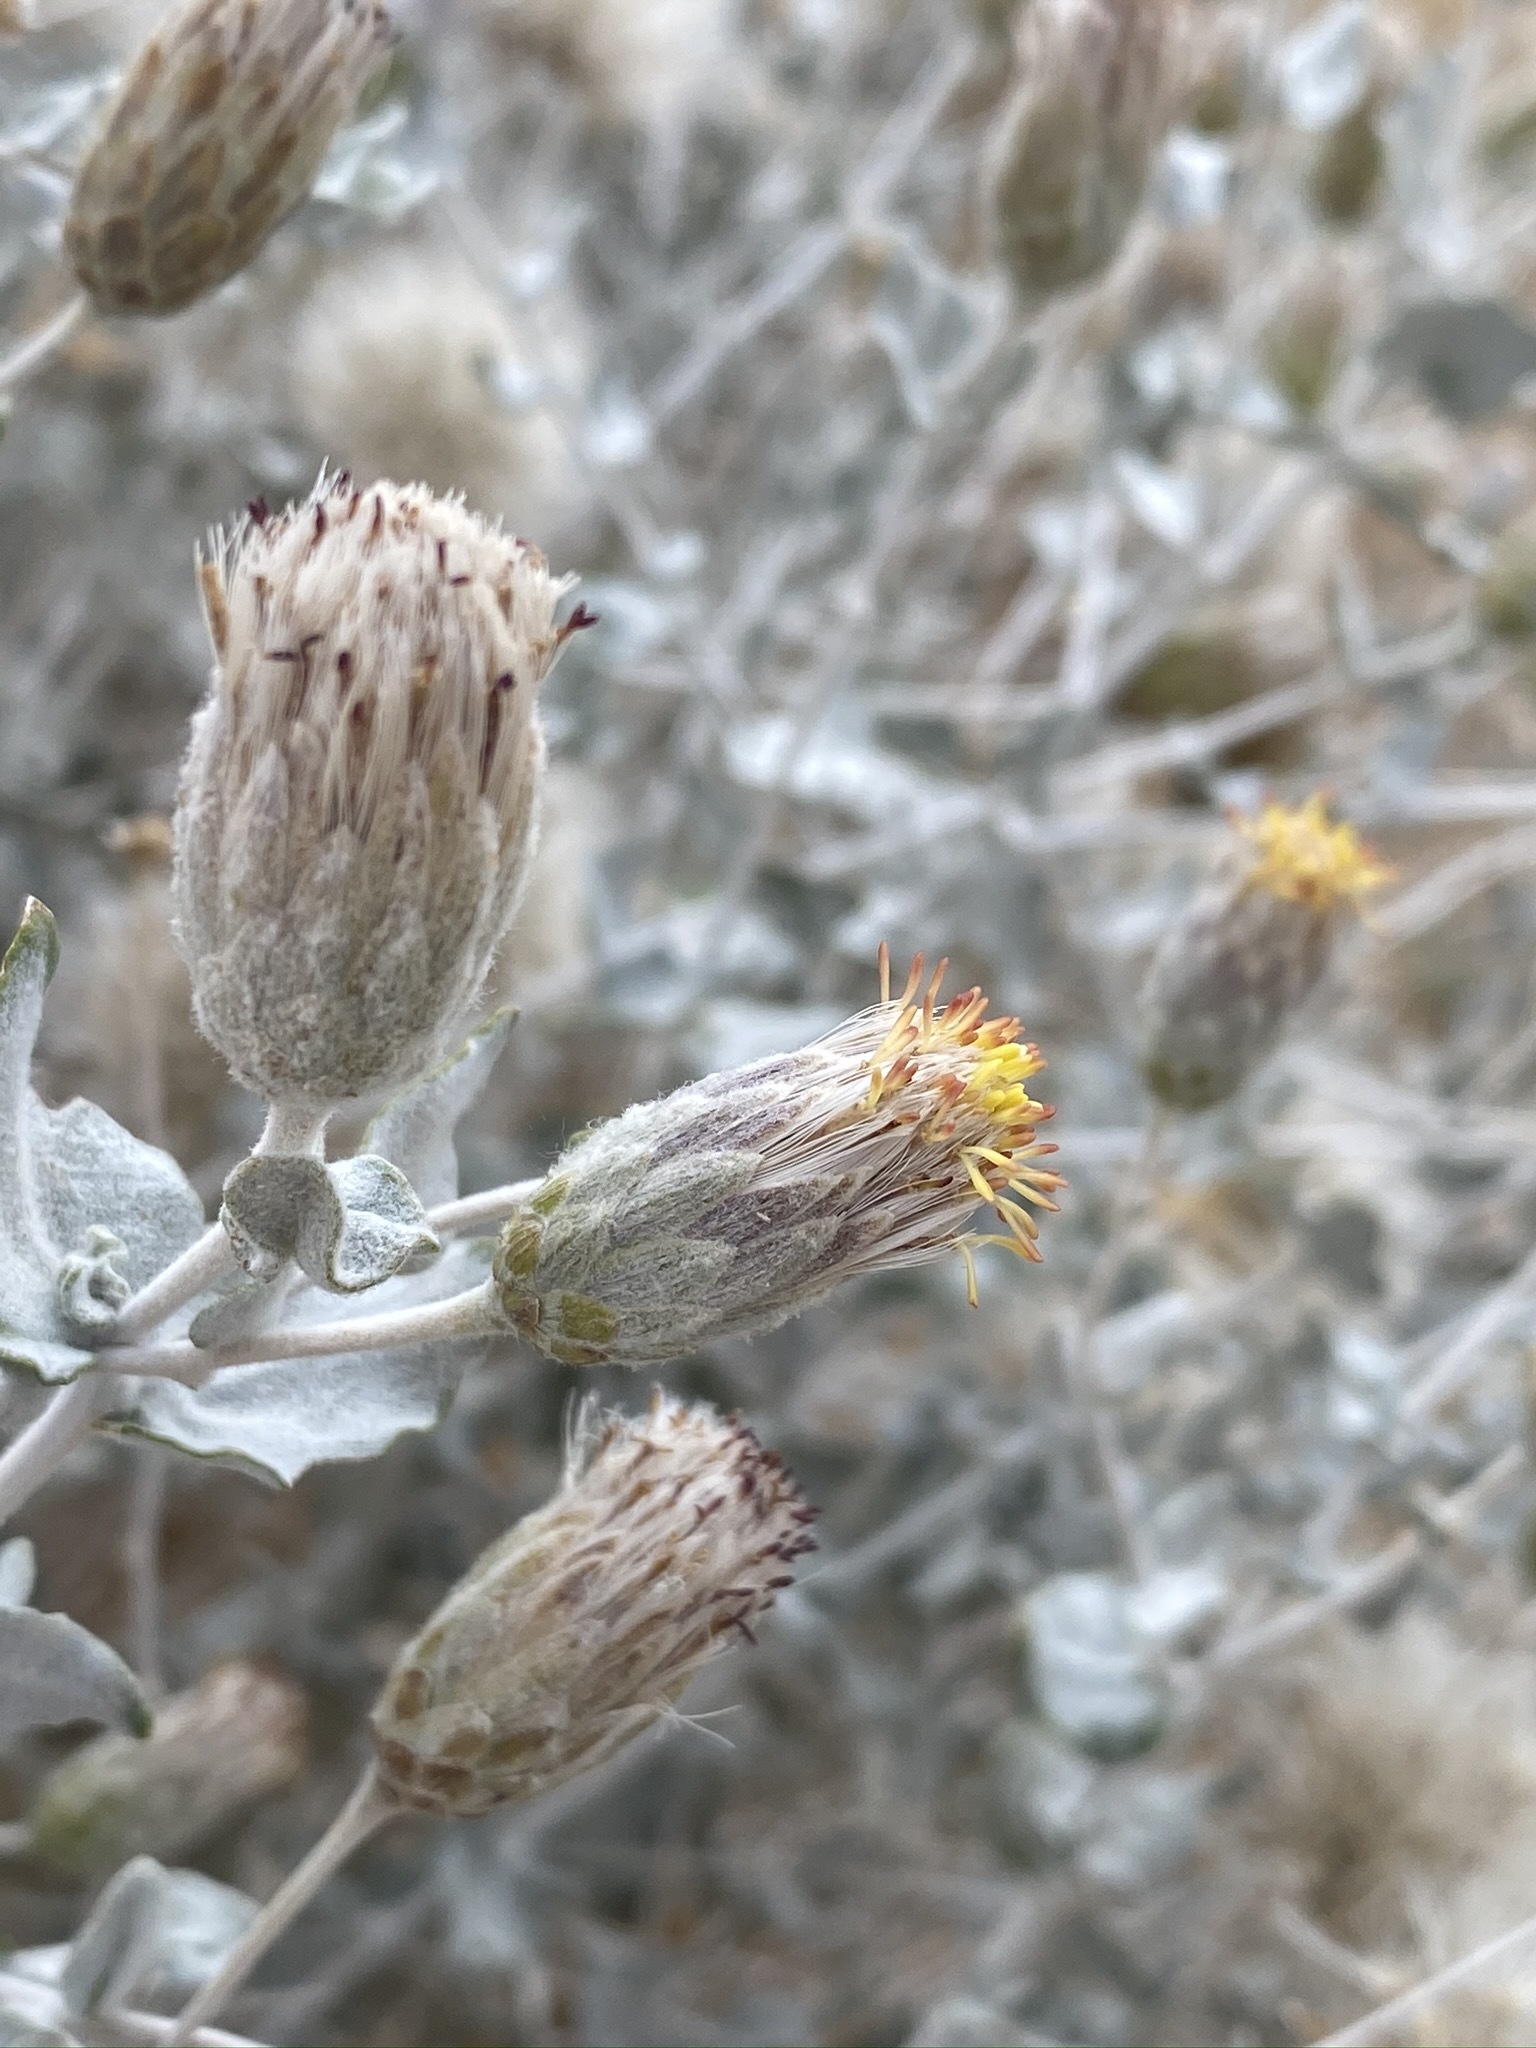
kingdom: Plantae
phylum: Tracheophyta
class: Magnoliopsida
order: Asterales
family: Asteraceae
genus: Brickellia
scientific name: Brickellia incana
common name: Woolly brickelbush
